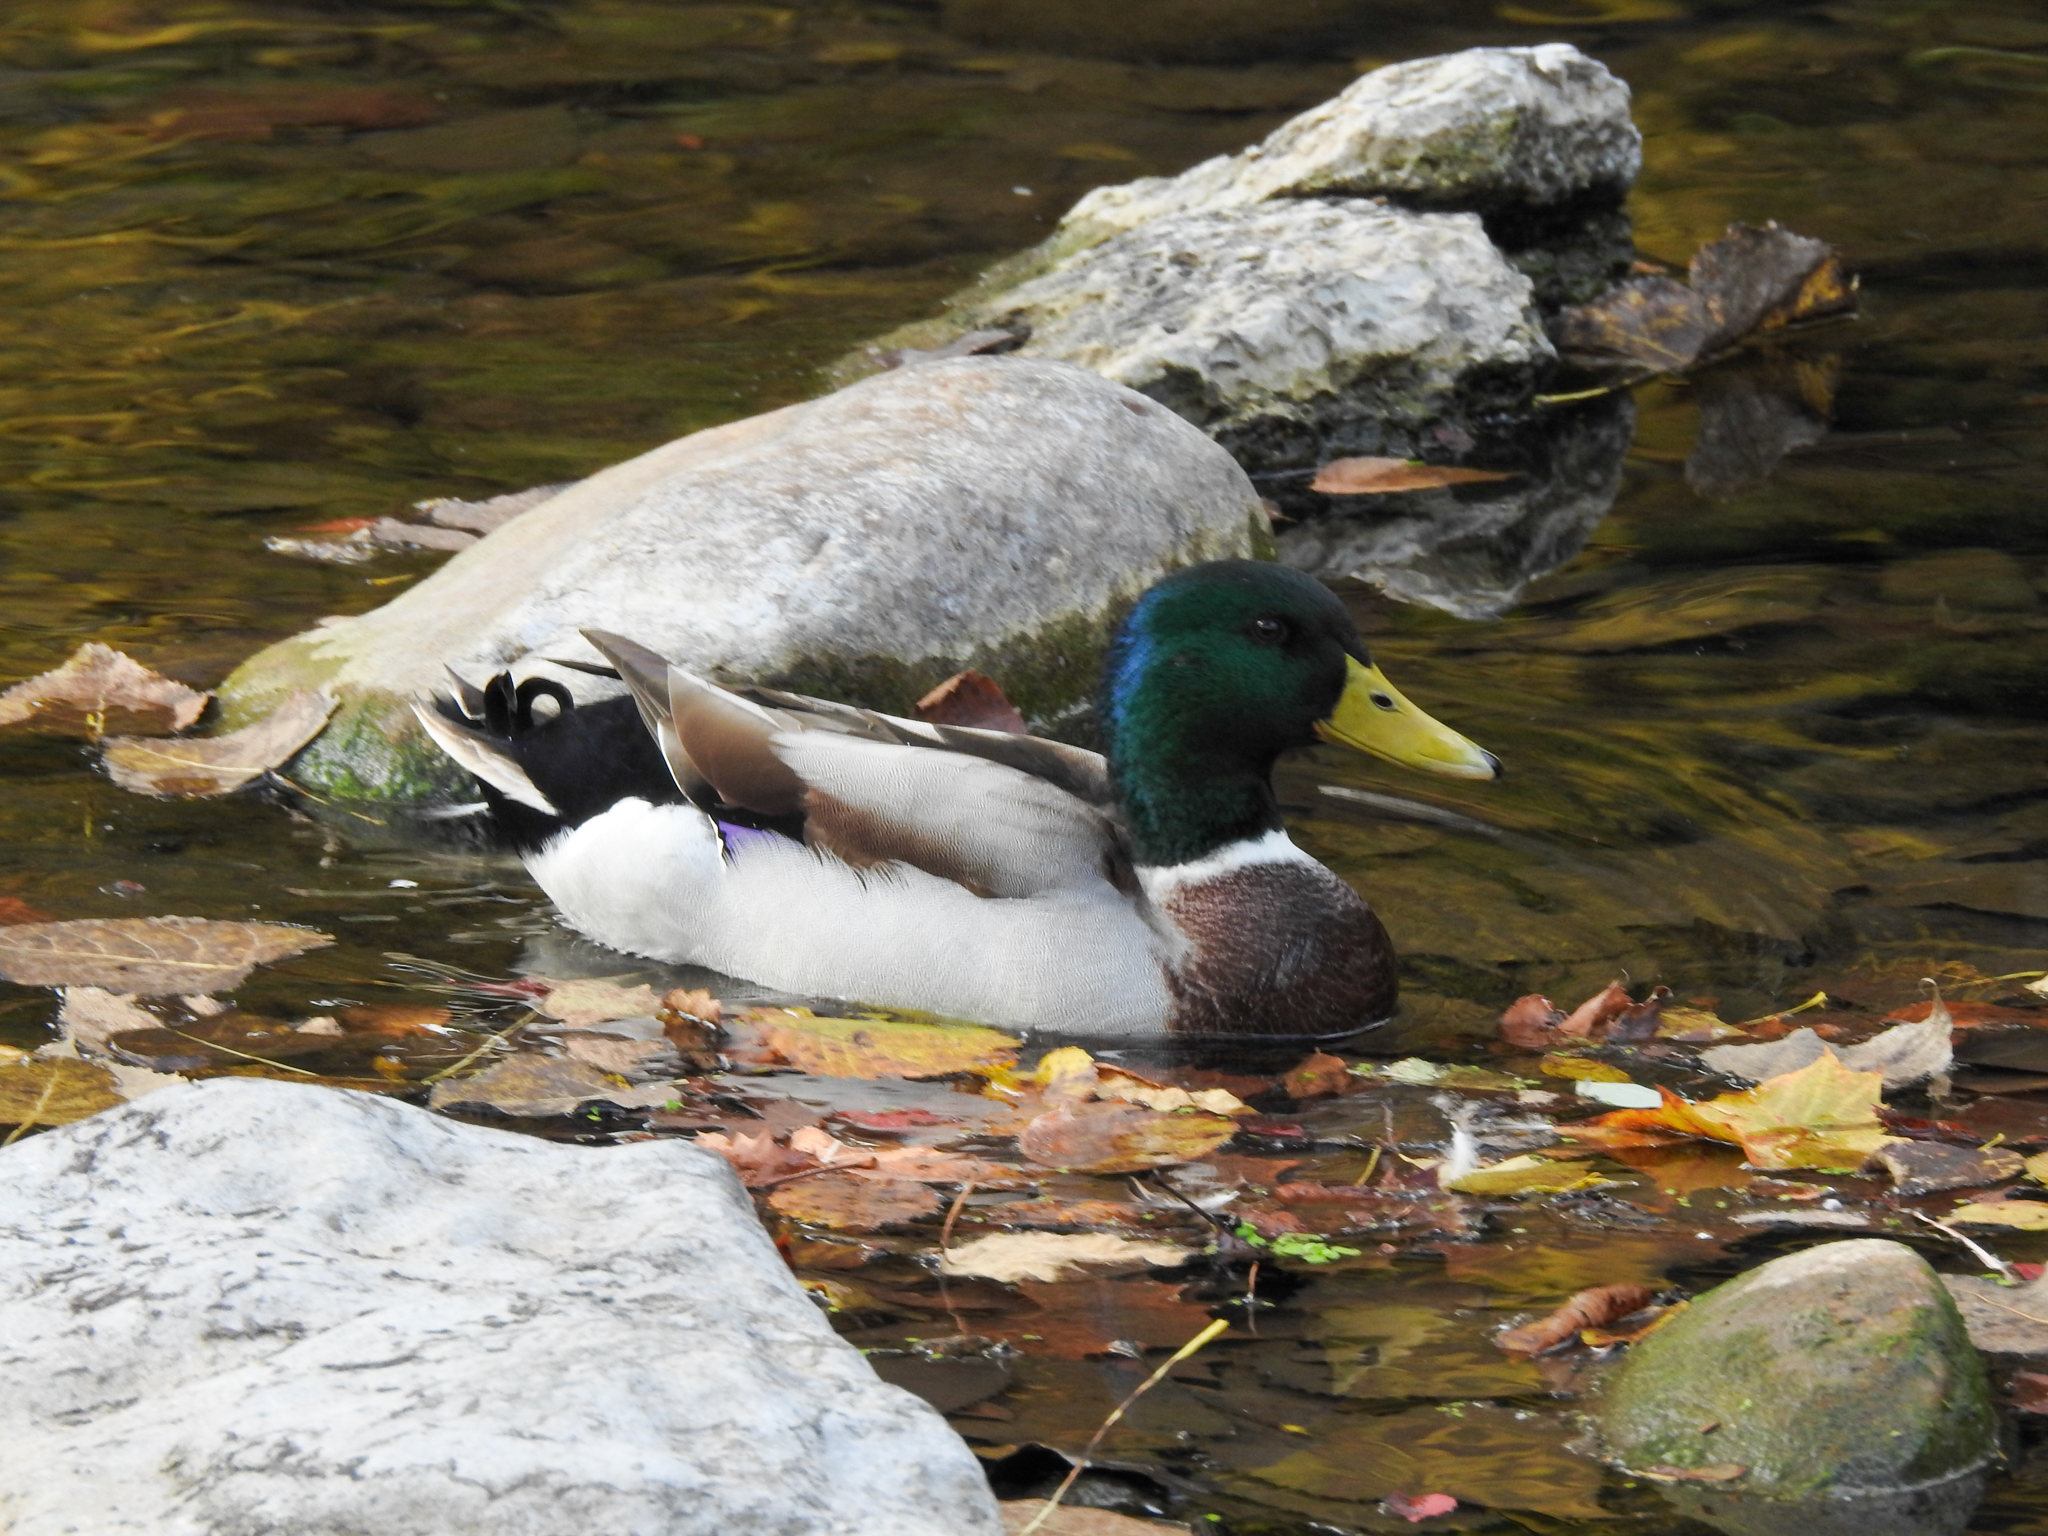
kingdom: Animalia
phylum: Chordata
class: Aves
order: Anseriformes
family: Anatidae
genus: Anas
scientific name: Anas platyrhynchos
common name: Mallard
